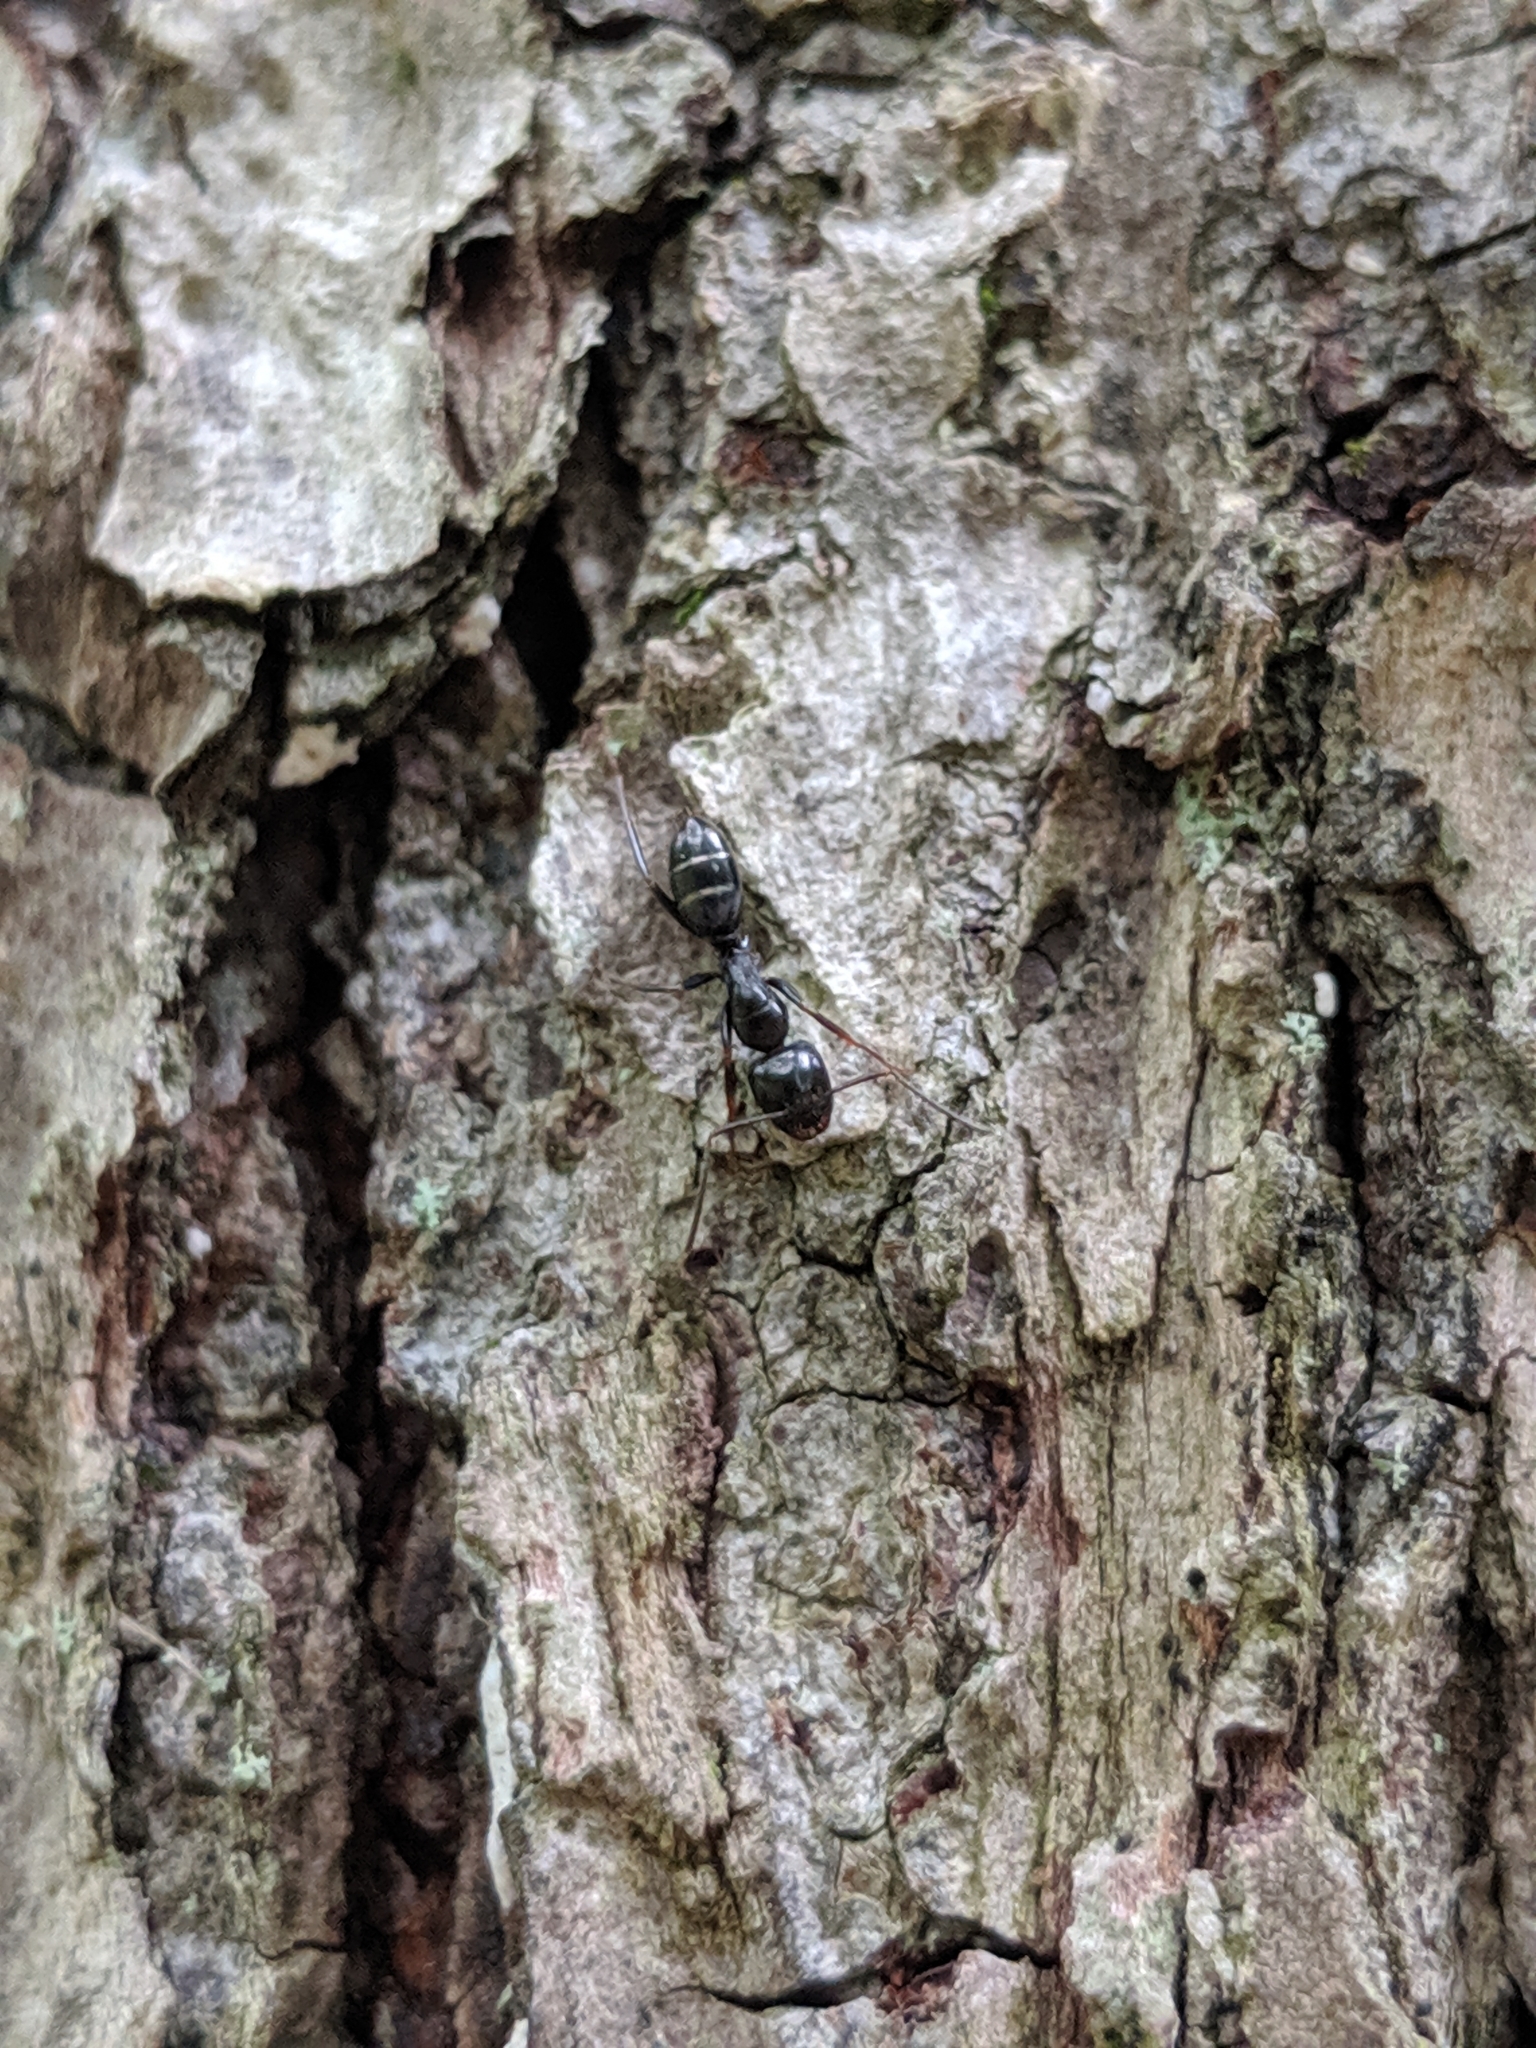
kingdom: Animalia
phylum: Arthropoda
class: Insecta
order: Hymenoptera
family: Formicidae
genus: Camponotus
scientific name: Camponotus nearcticus
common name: Smaller carpenter ant
